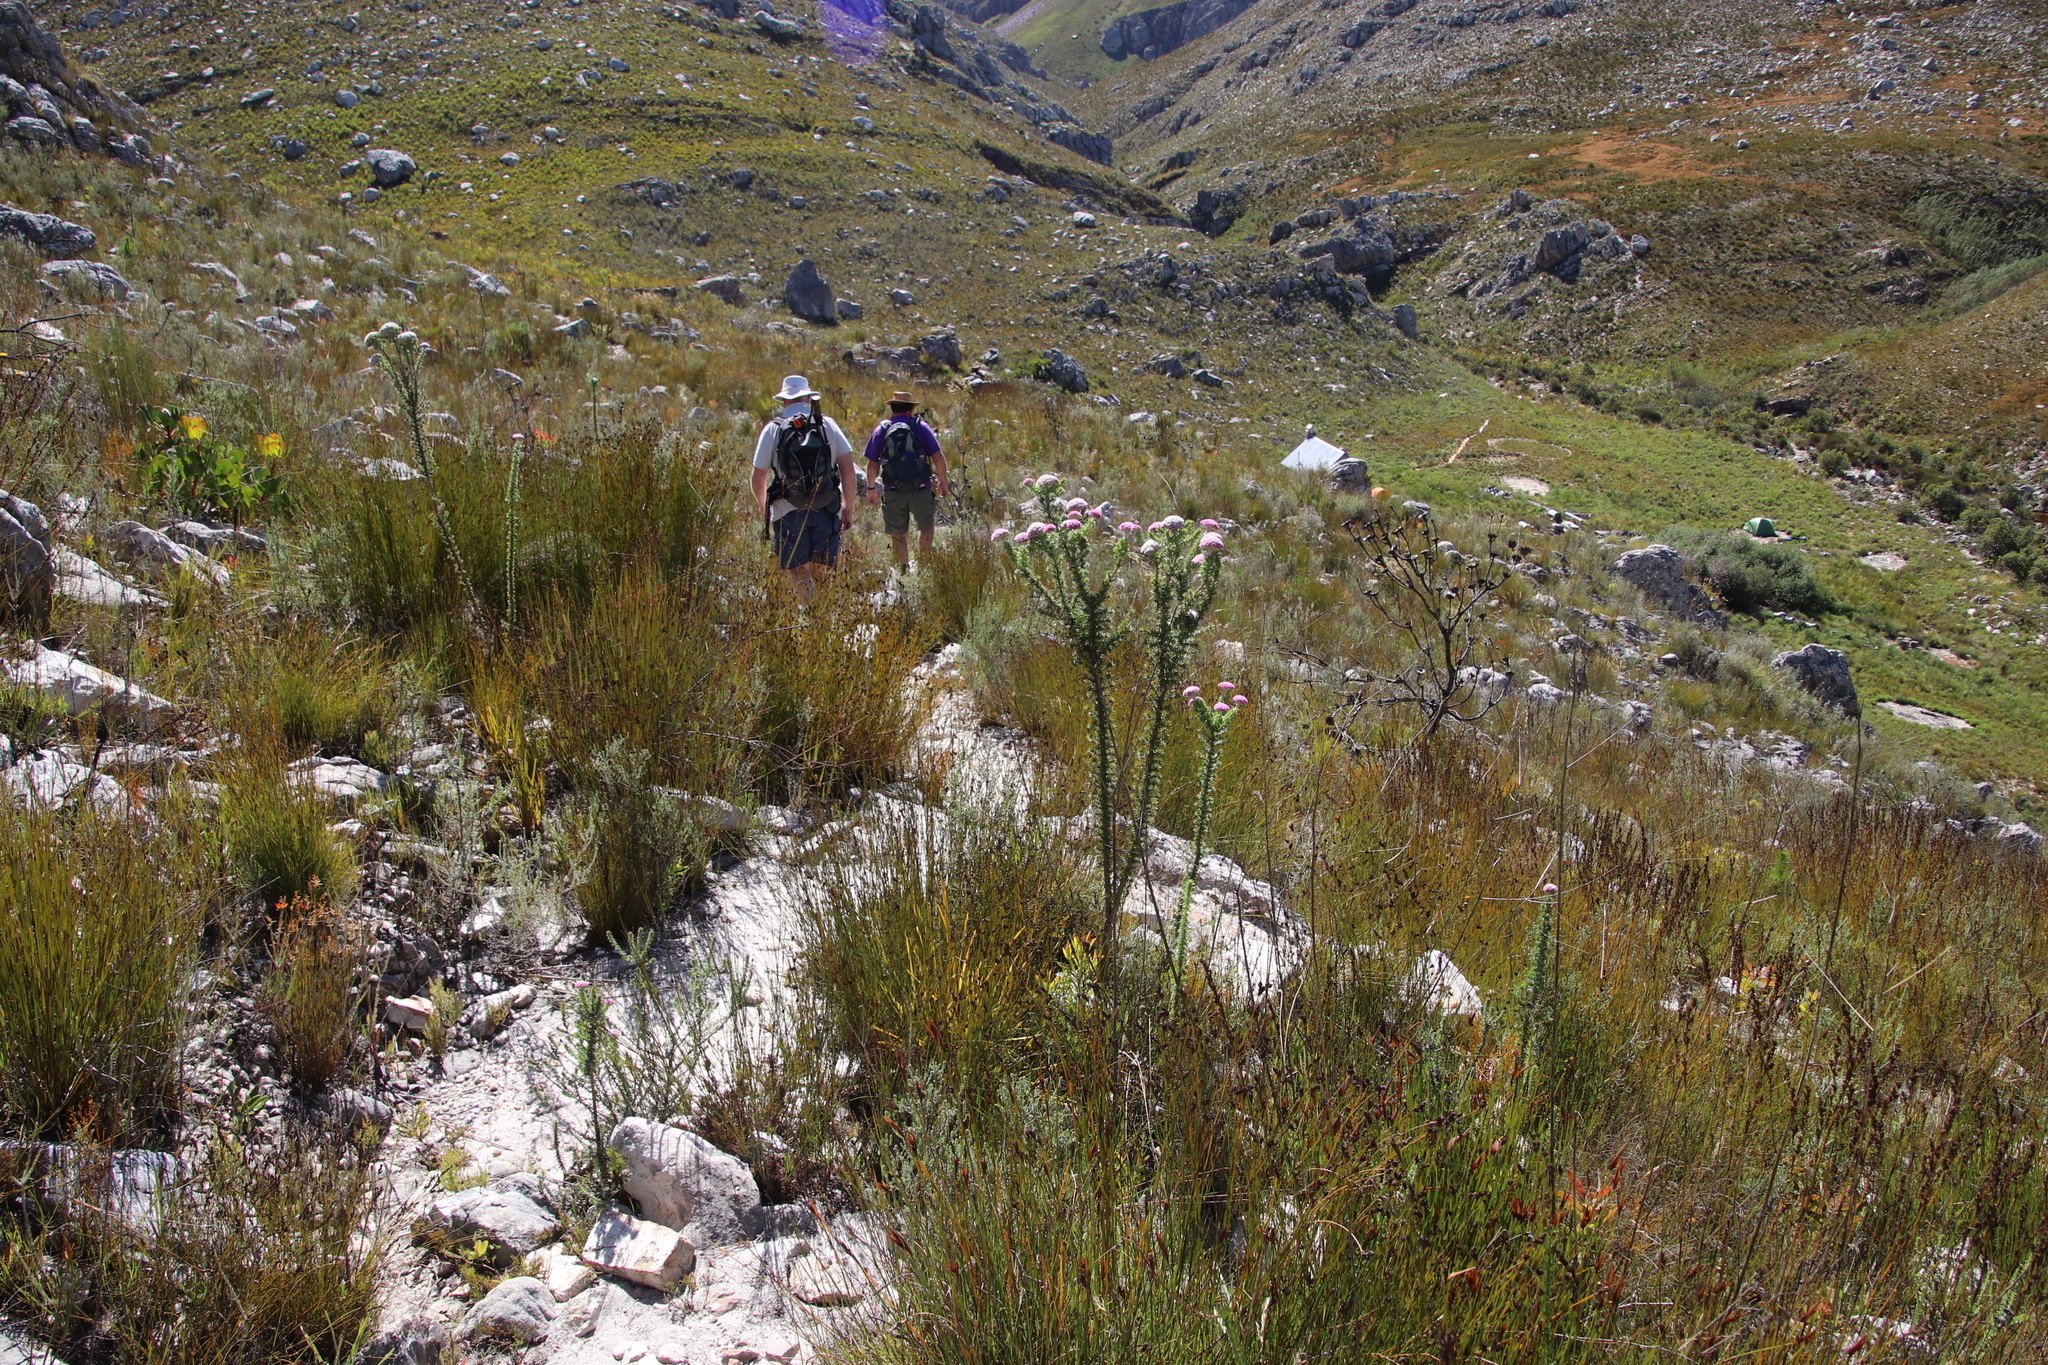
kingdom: Plantae
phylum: Tracheophyta
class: Magnoliopsida
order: Asterales
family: Asteraceae
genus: Metalasia
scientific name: Metalasia muraltiifolia
